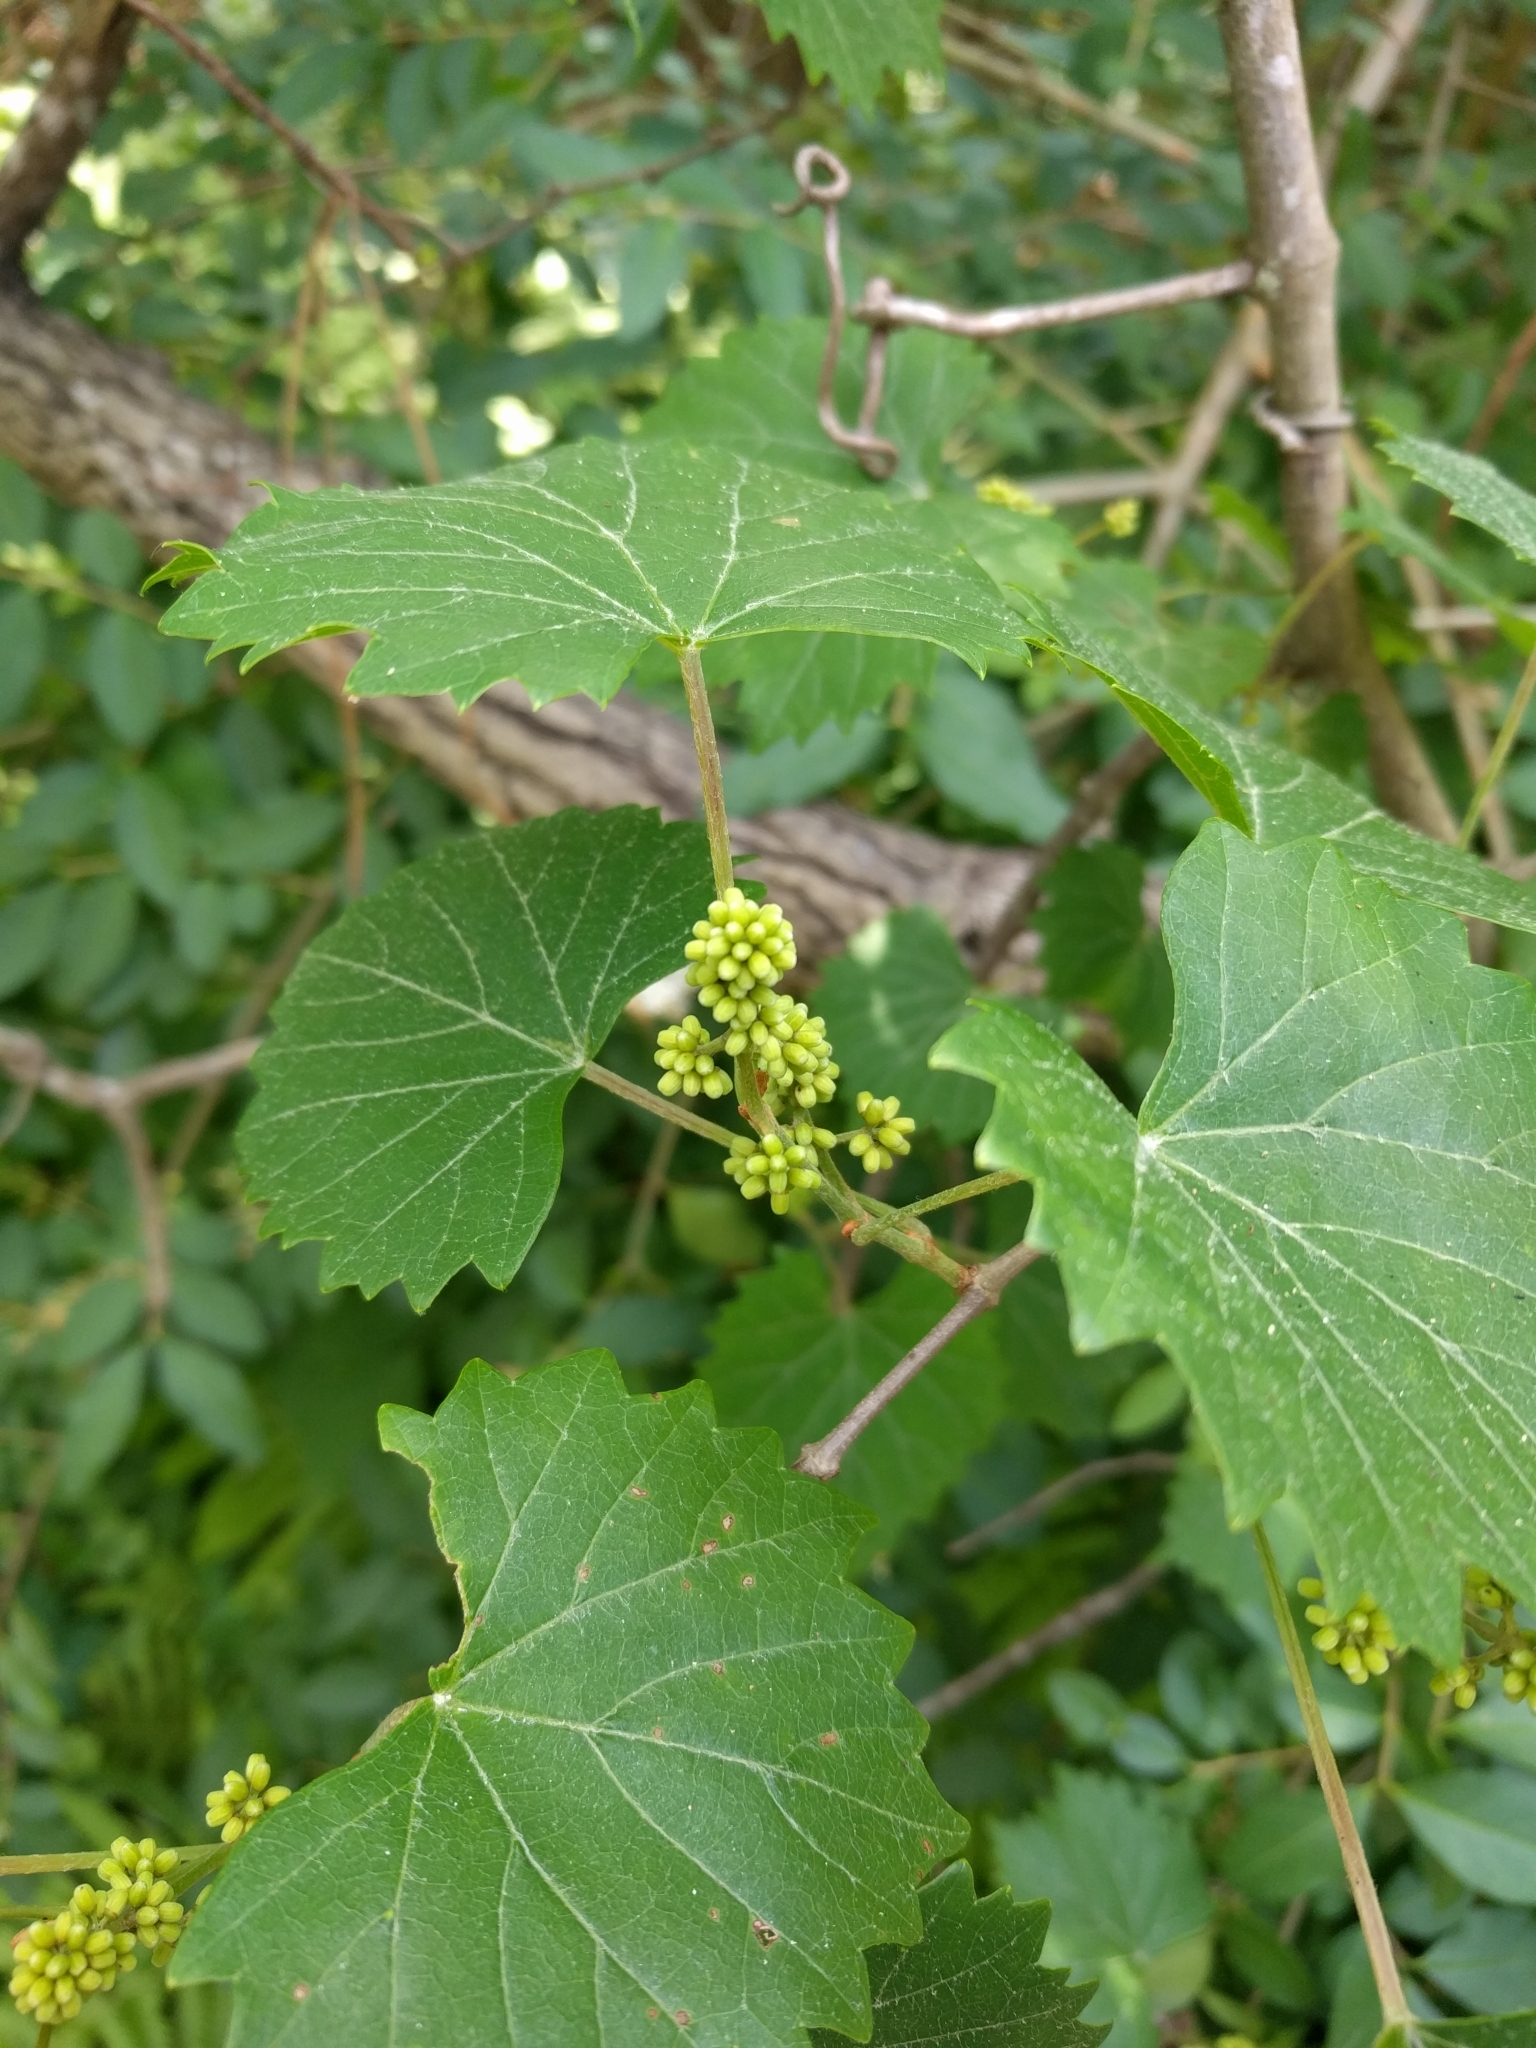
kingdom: Plantae
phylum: Tracheophyta
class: Magnoliopsida
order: Vitales
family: Vitaceae
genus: Vitis
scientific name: Vitis rotundifolia
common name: Muscadine grape
